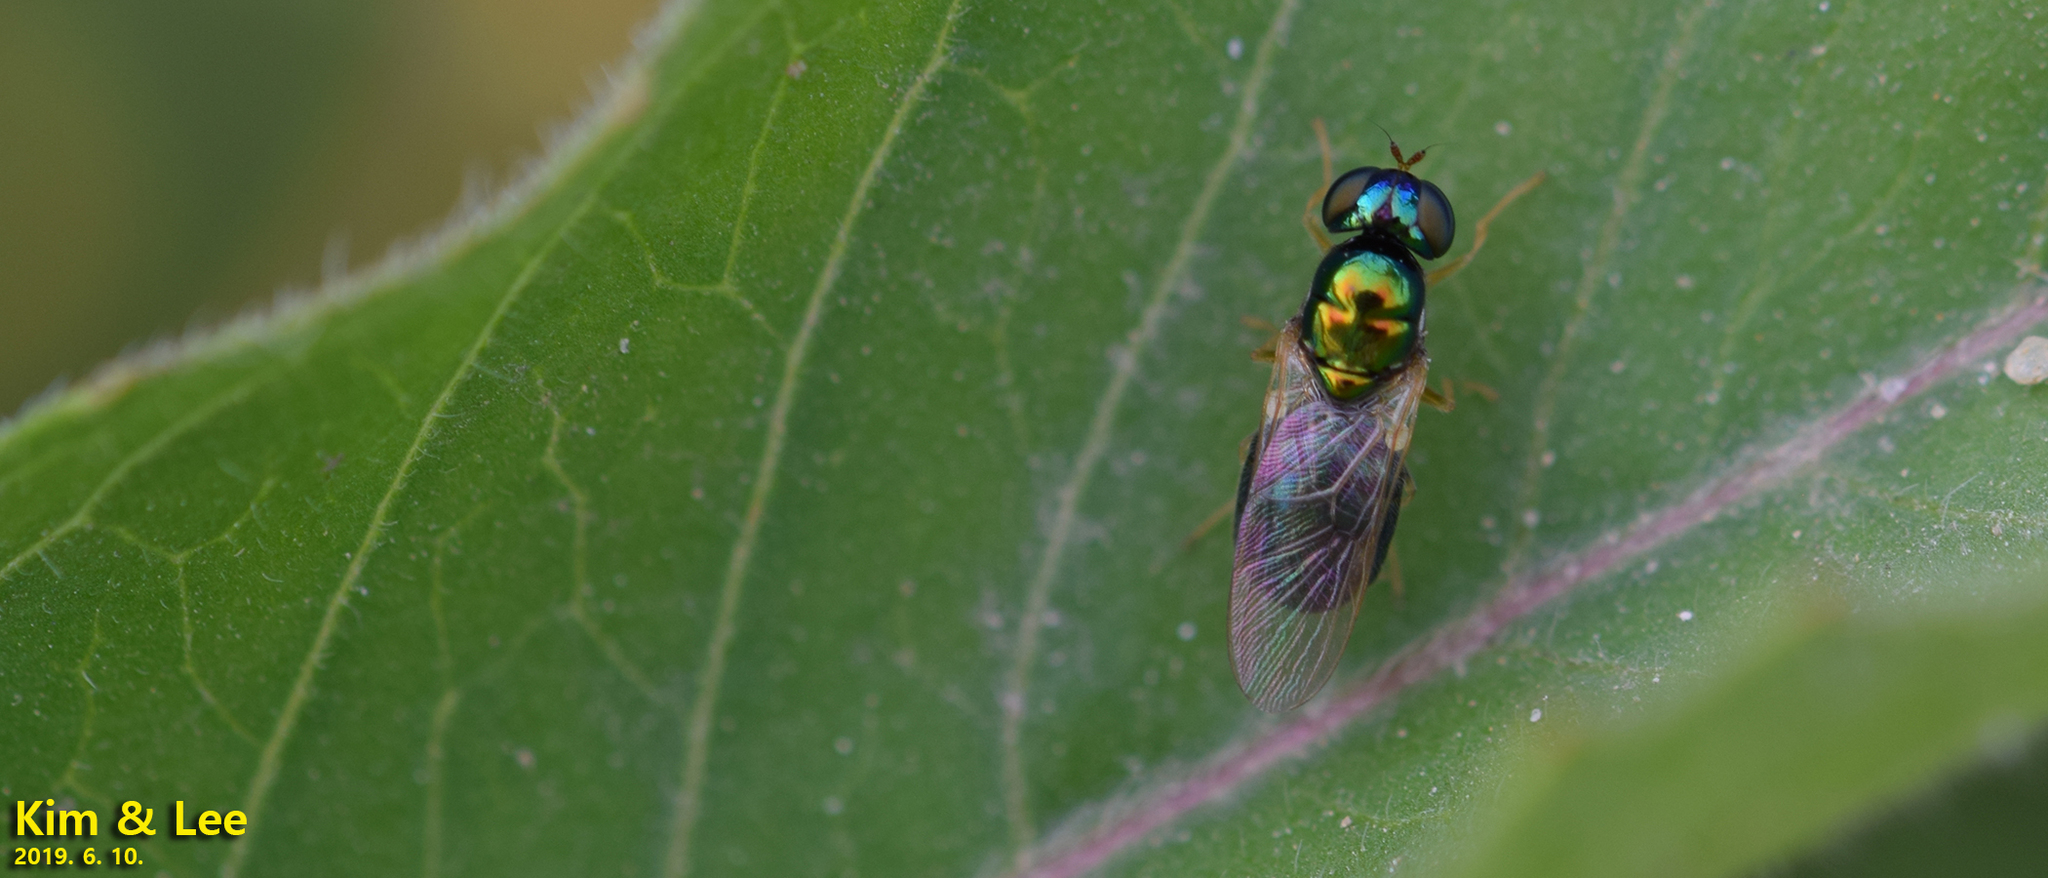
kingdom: Animalia
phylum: Arthropoda
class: Insecta
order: Diptera
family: Stratiomyidae
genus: Microchrysa
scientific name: Microchrysa flaviventris
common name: Soldier fly
